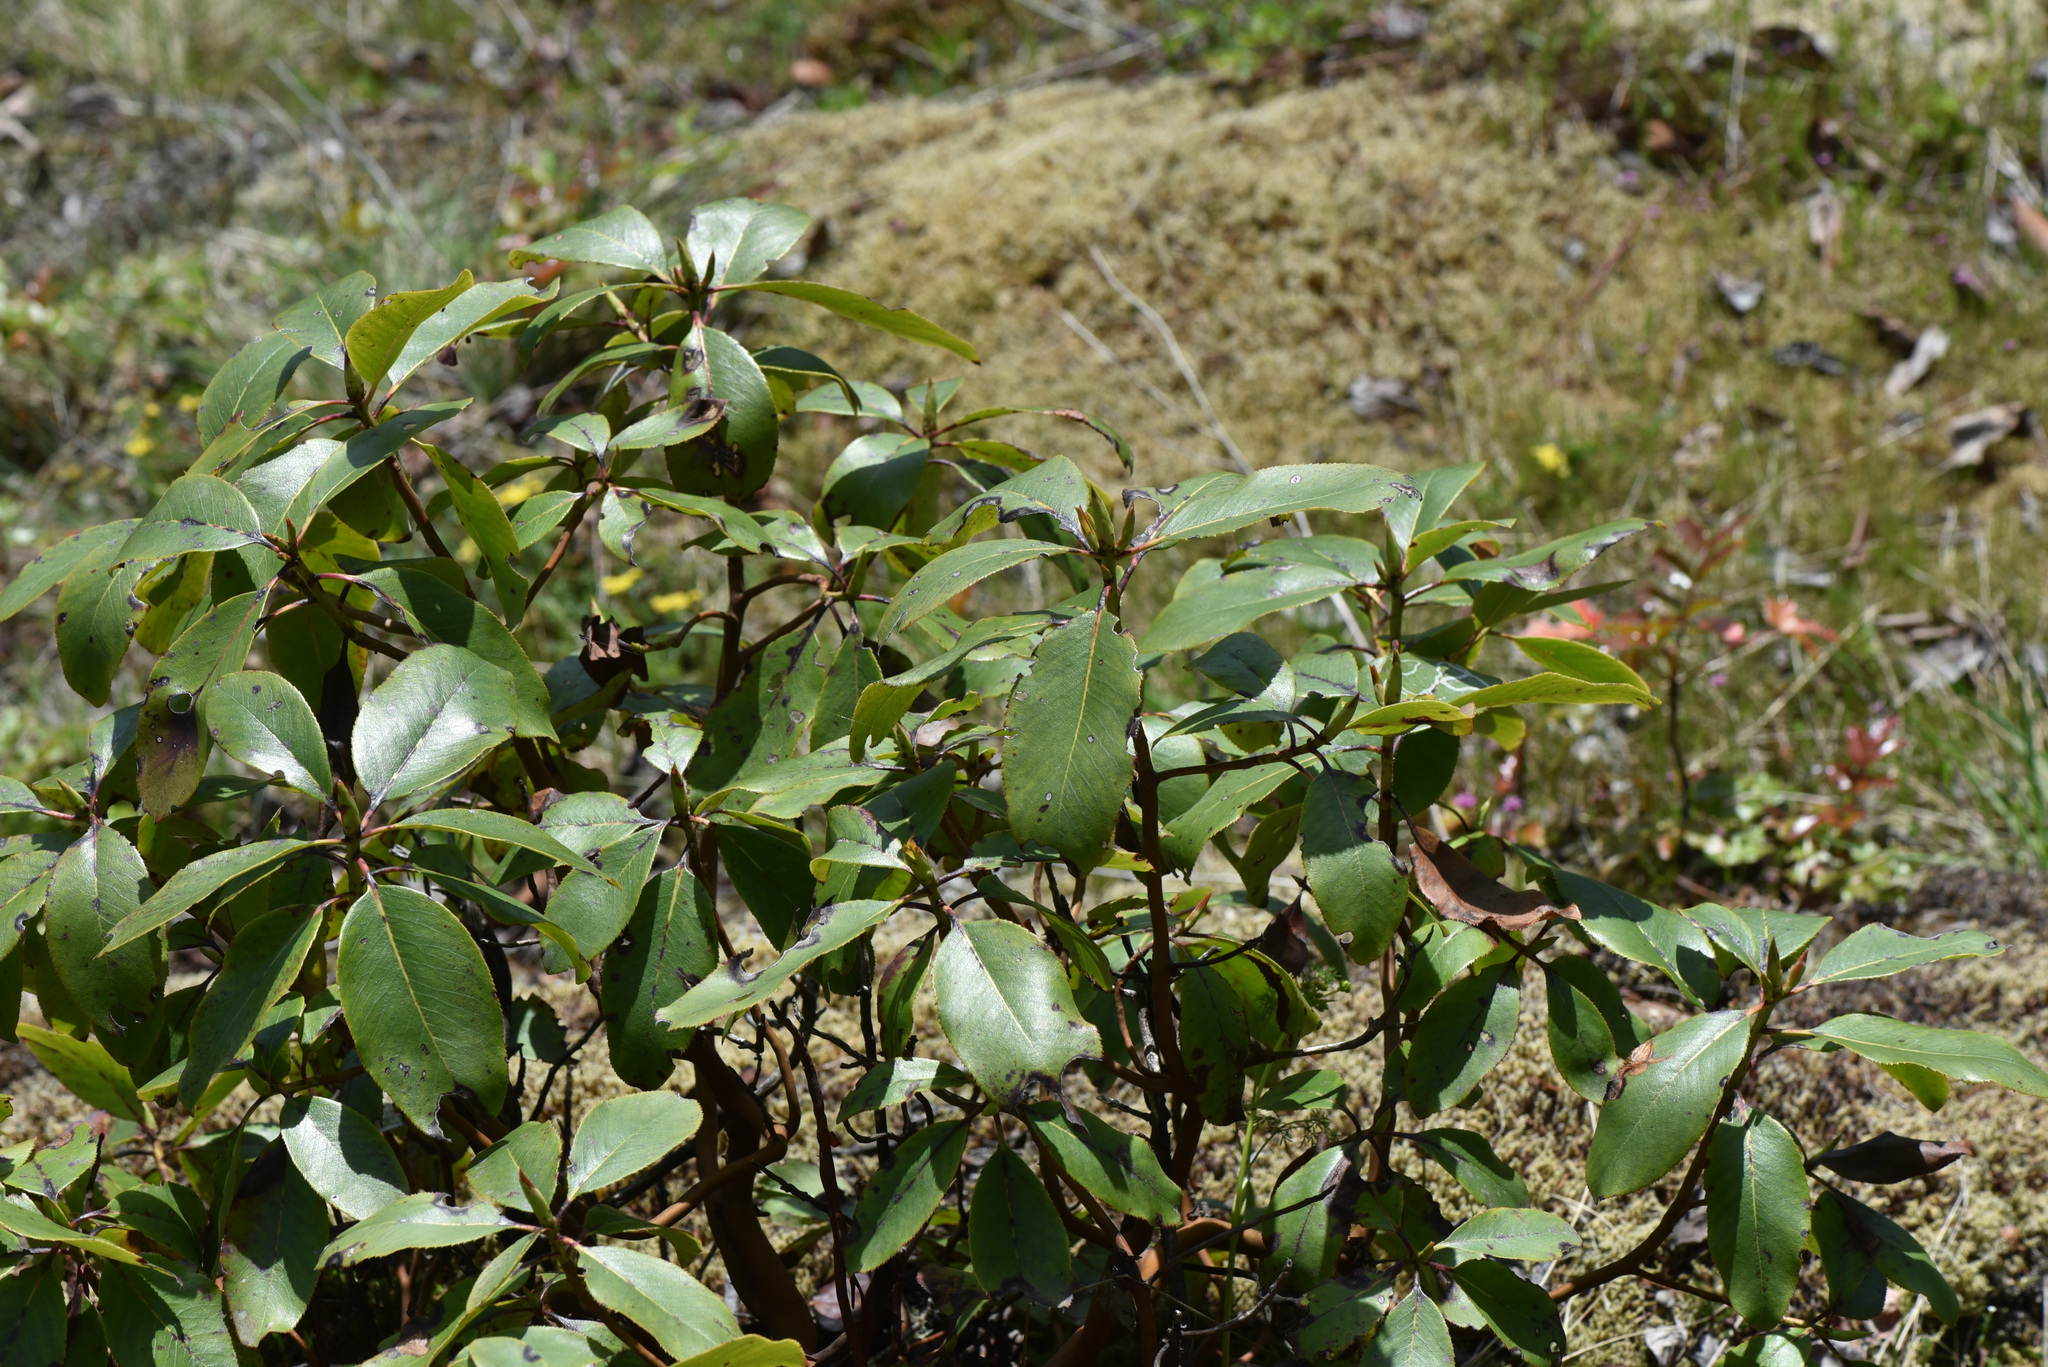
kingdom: Plantae
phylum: Tracheophyta
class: Magnoliopsida
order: Ericales
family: Ericaceae
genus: Arbutus
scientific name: Arbutus menziesii
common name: Pacific madrone
